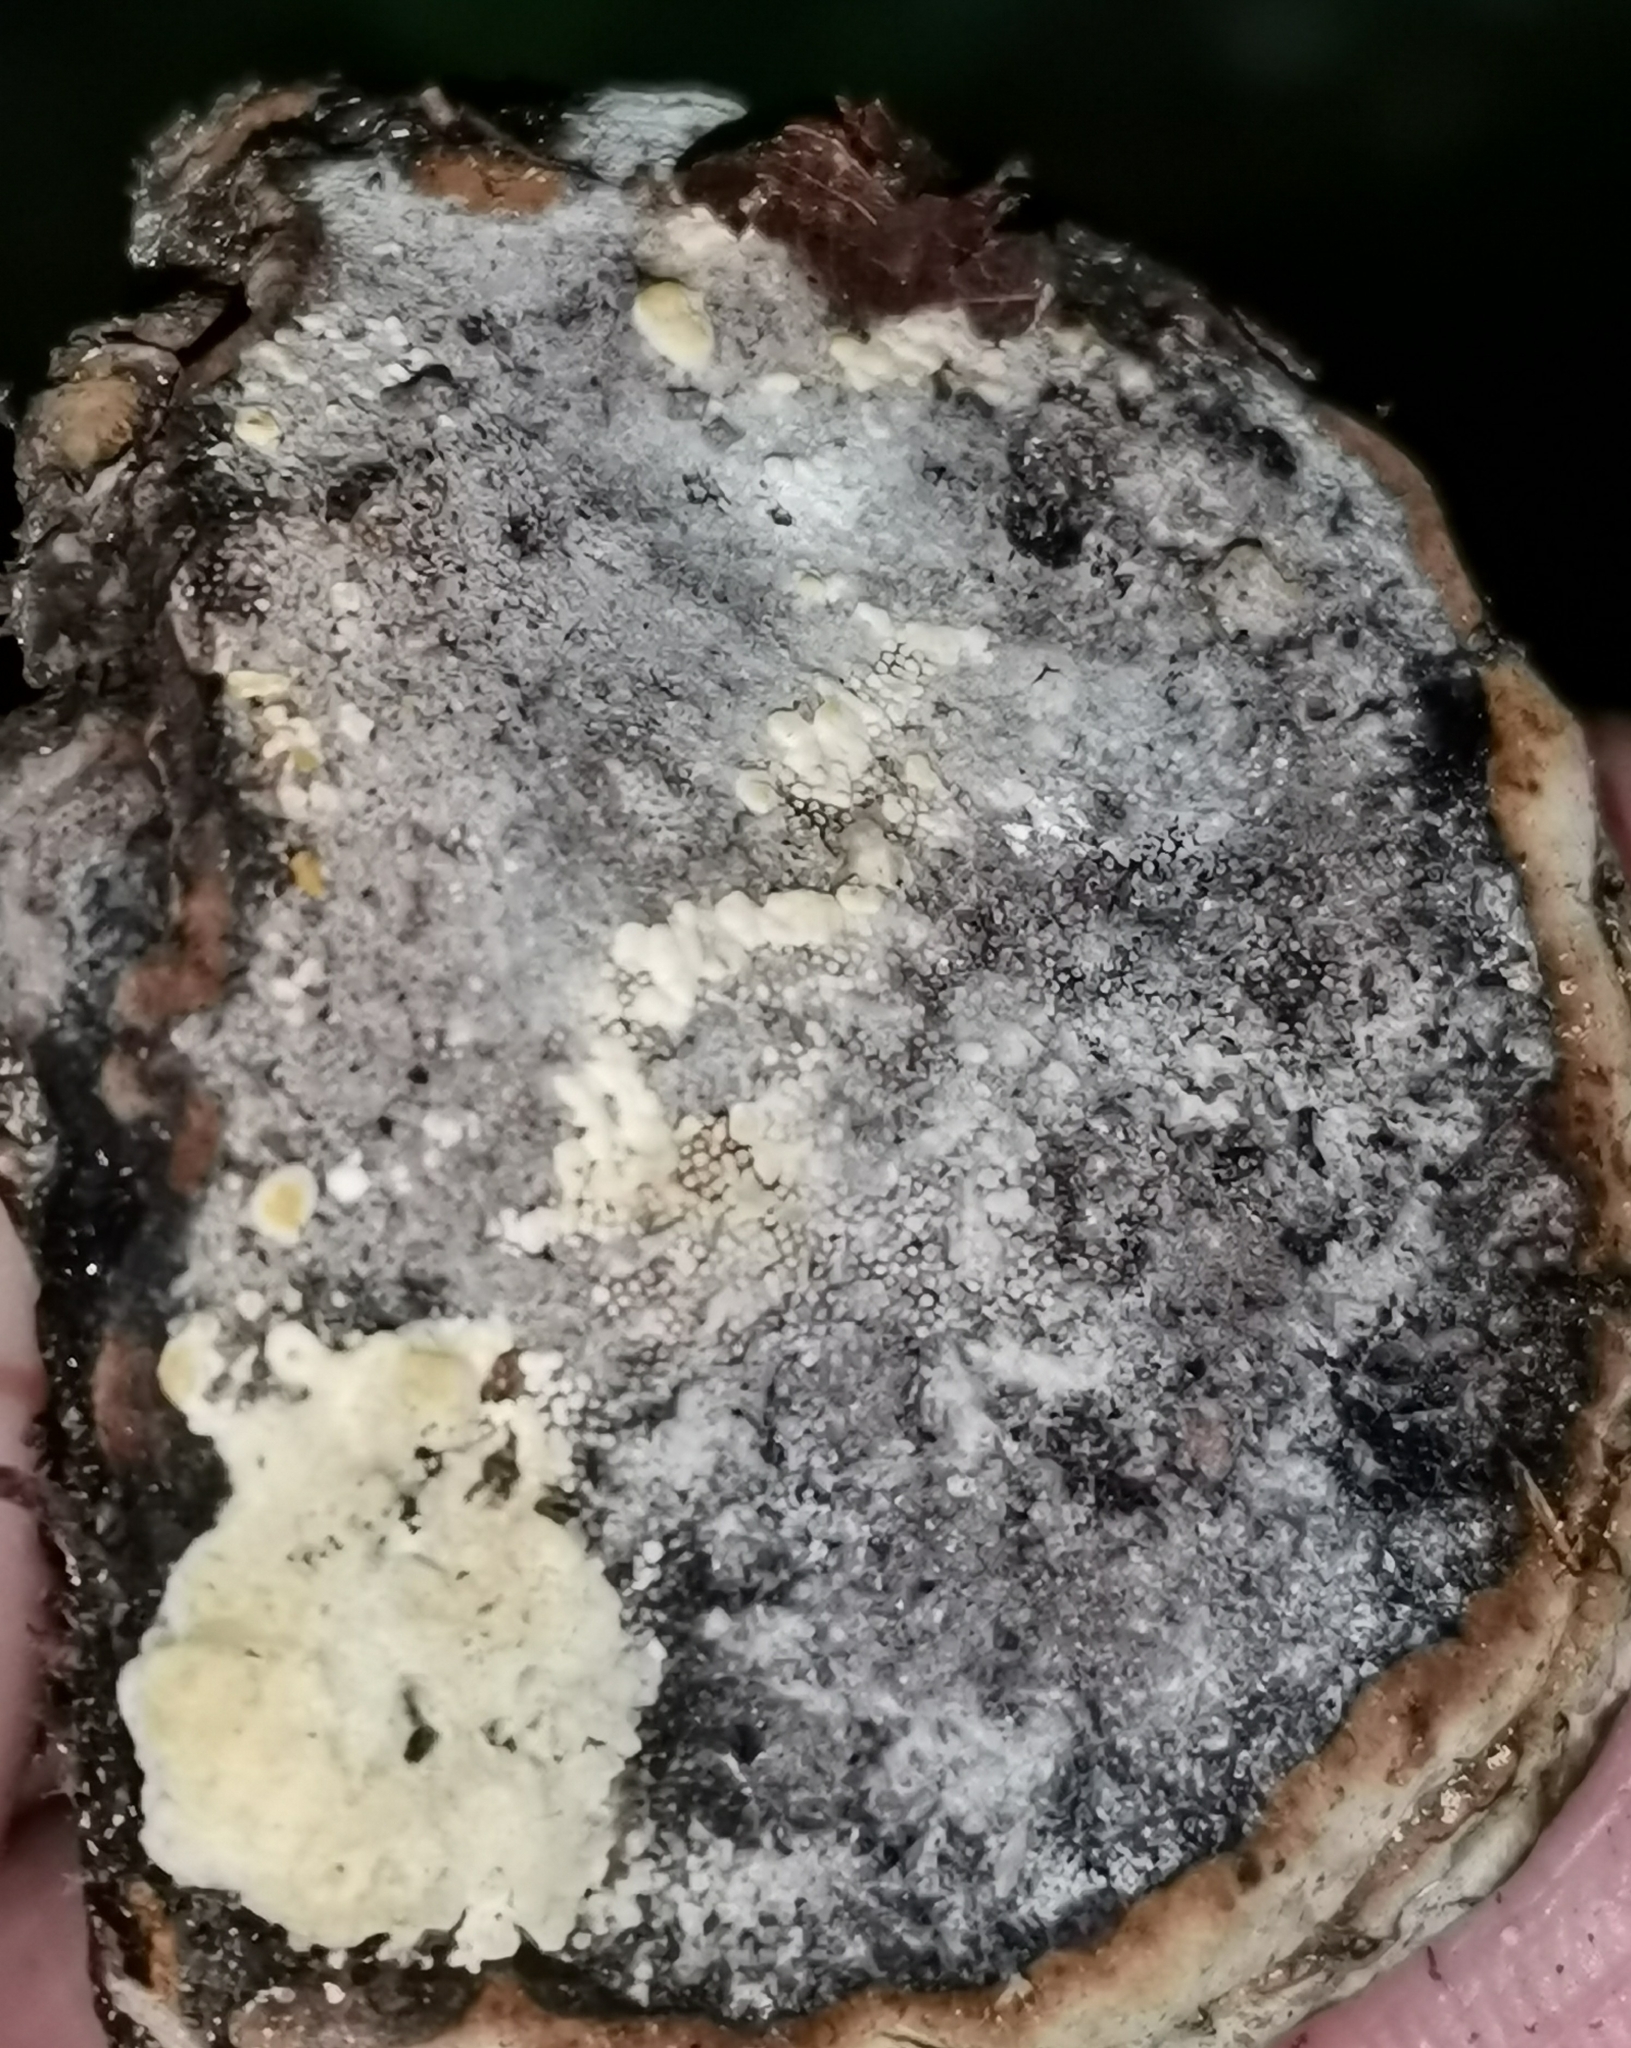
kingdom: Fungi
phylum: Basidiomycota
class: Agaricomycetes
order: Polyporales
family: Polyporaceae
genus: Fomes
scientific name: Fomes fomentarius
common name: Hoof fungus
